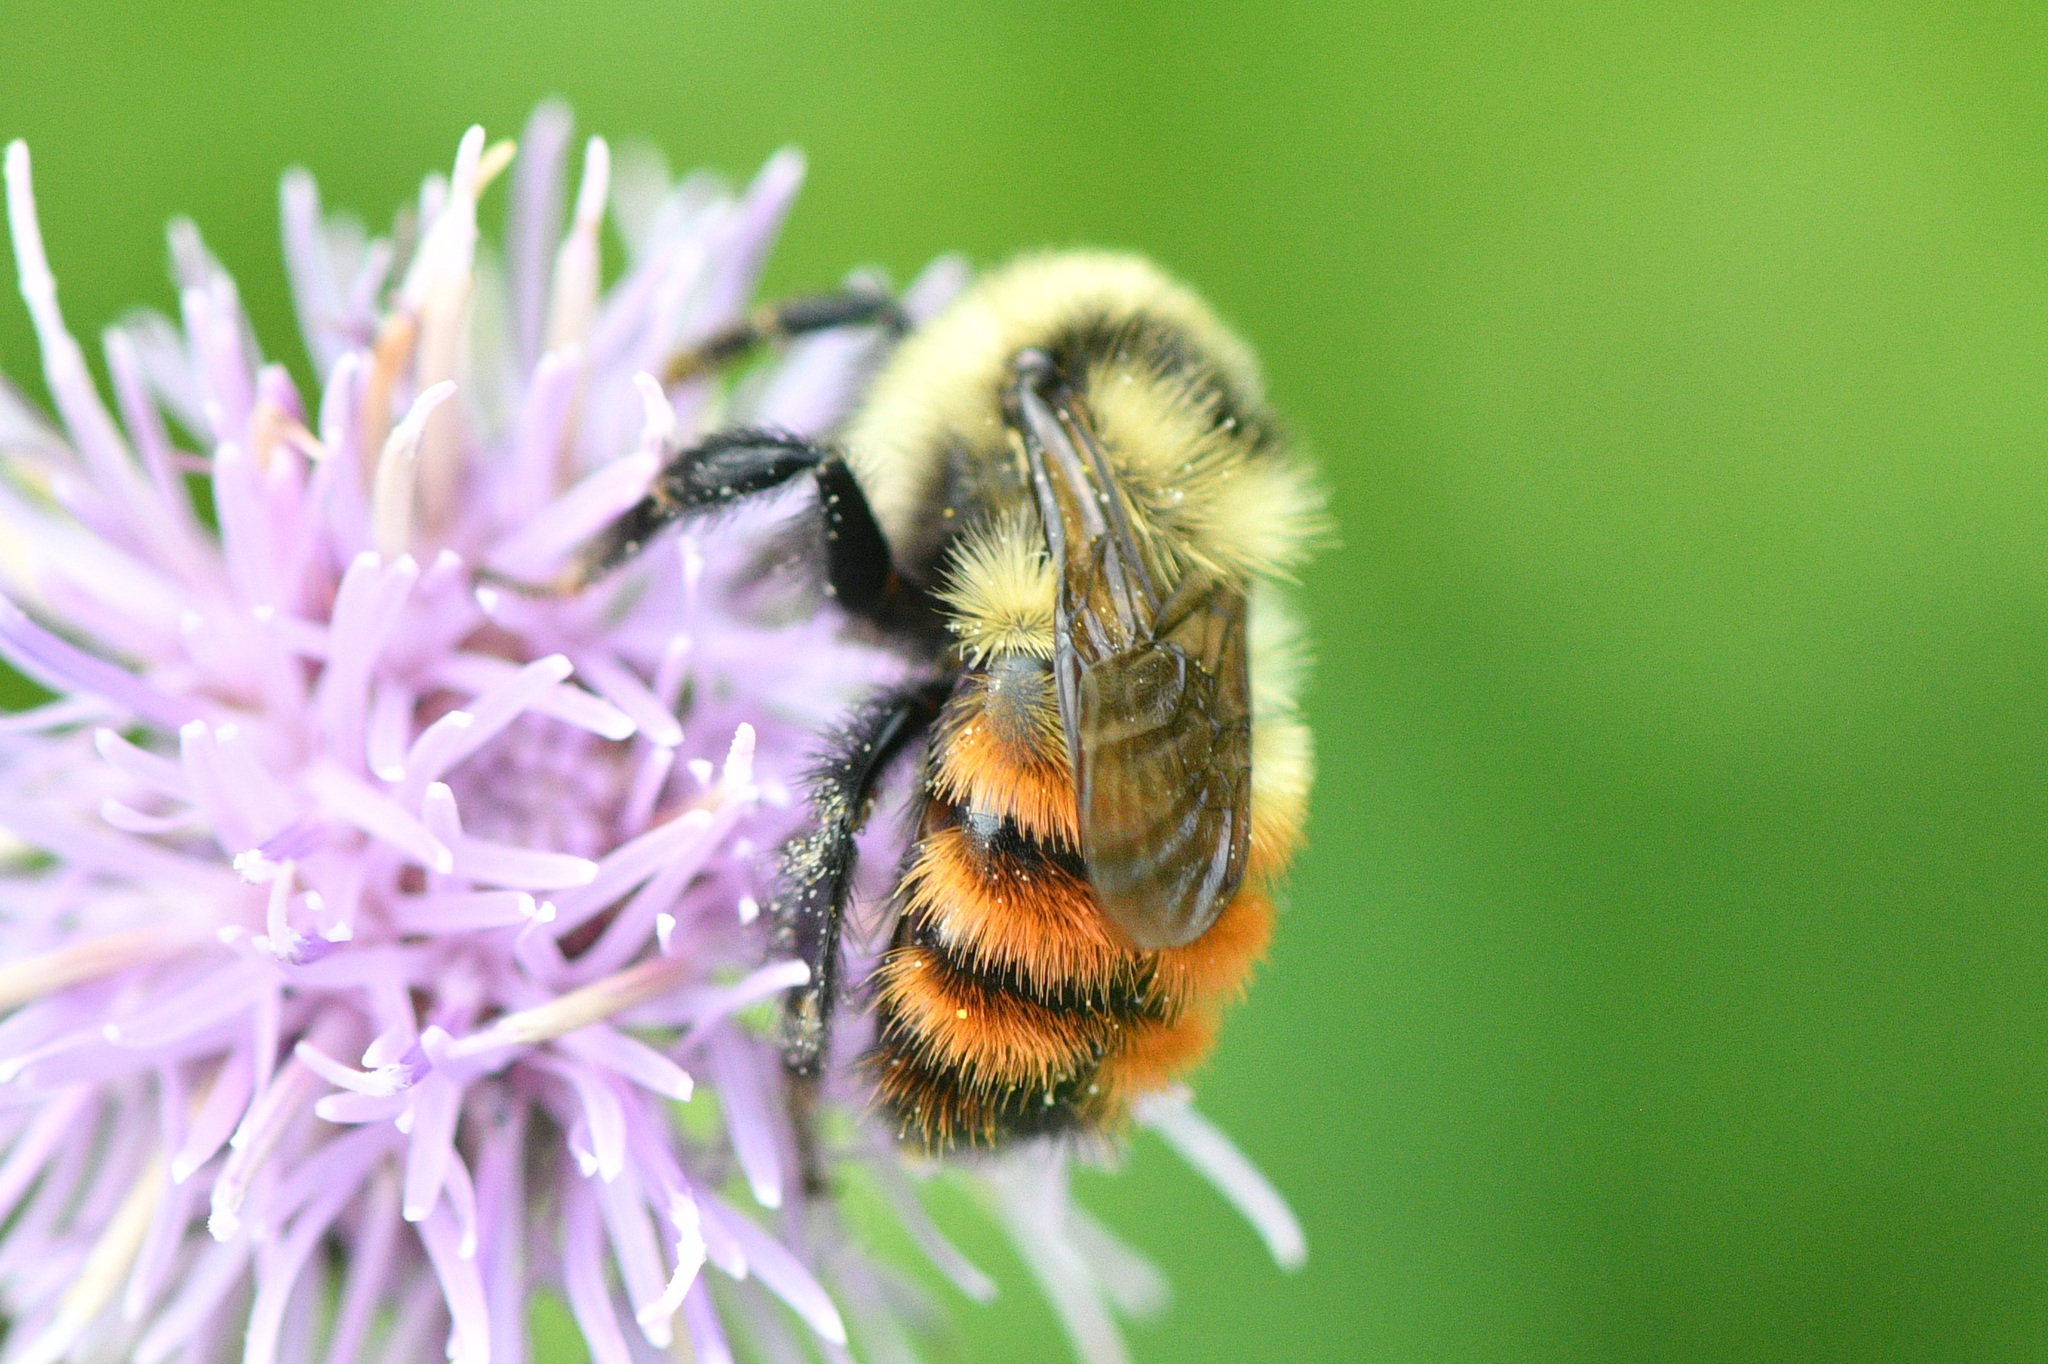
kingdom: Animalia
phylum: Arthropoda
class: Insecta
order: Hymenoptera
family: Apidae
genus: Bombus
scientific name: Bombus rufocinctus
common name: Red-belted bumble bee
